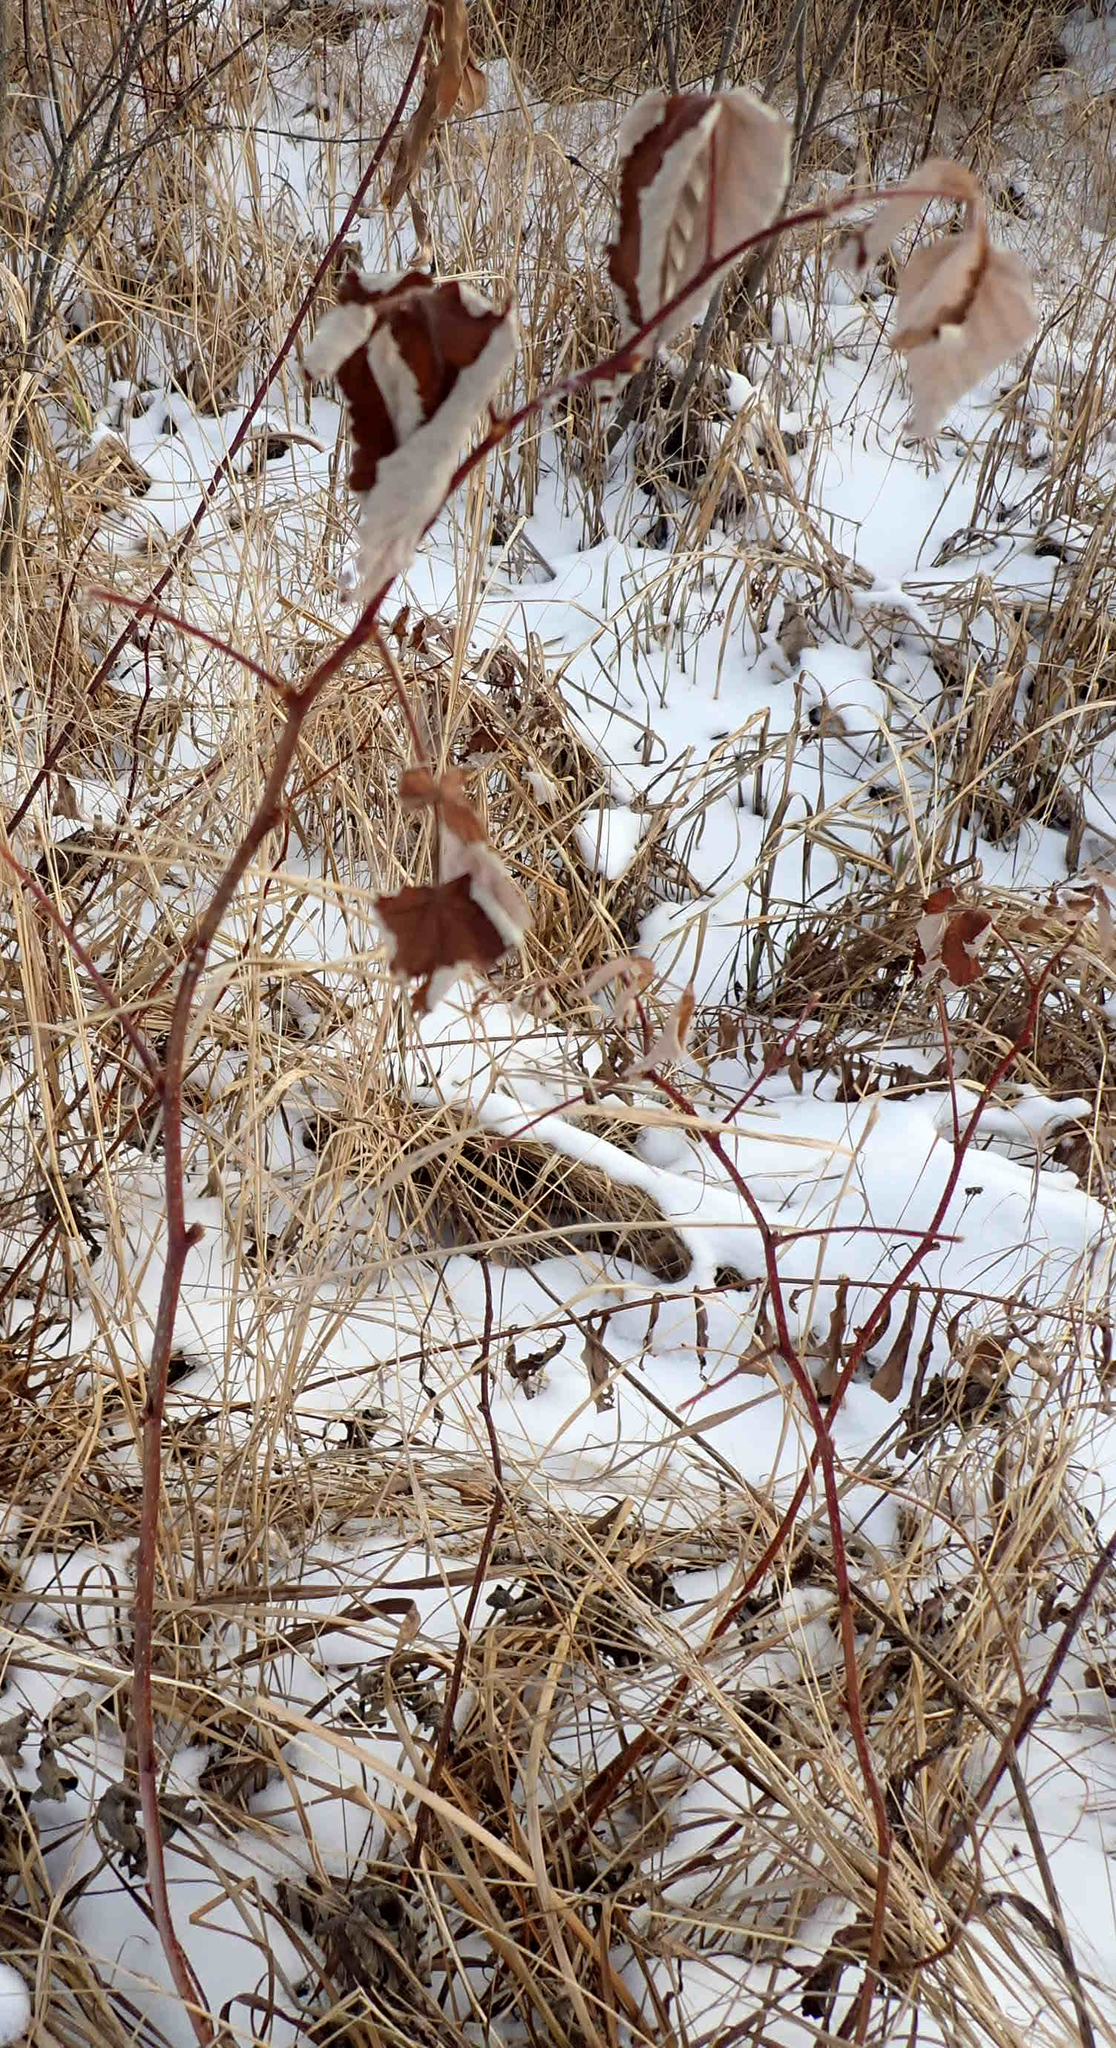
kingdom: Plantae
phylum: Tracheophyta
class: Magnoliopsida
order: Rosales
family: Rosaceae
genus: Rubus
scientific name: Rubus idaeus
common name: Raspberry
